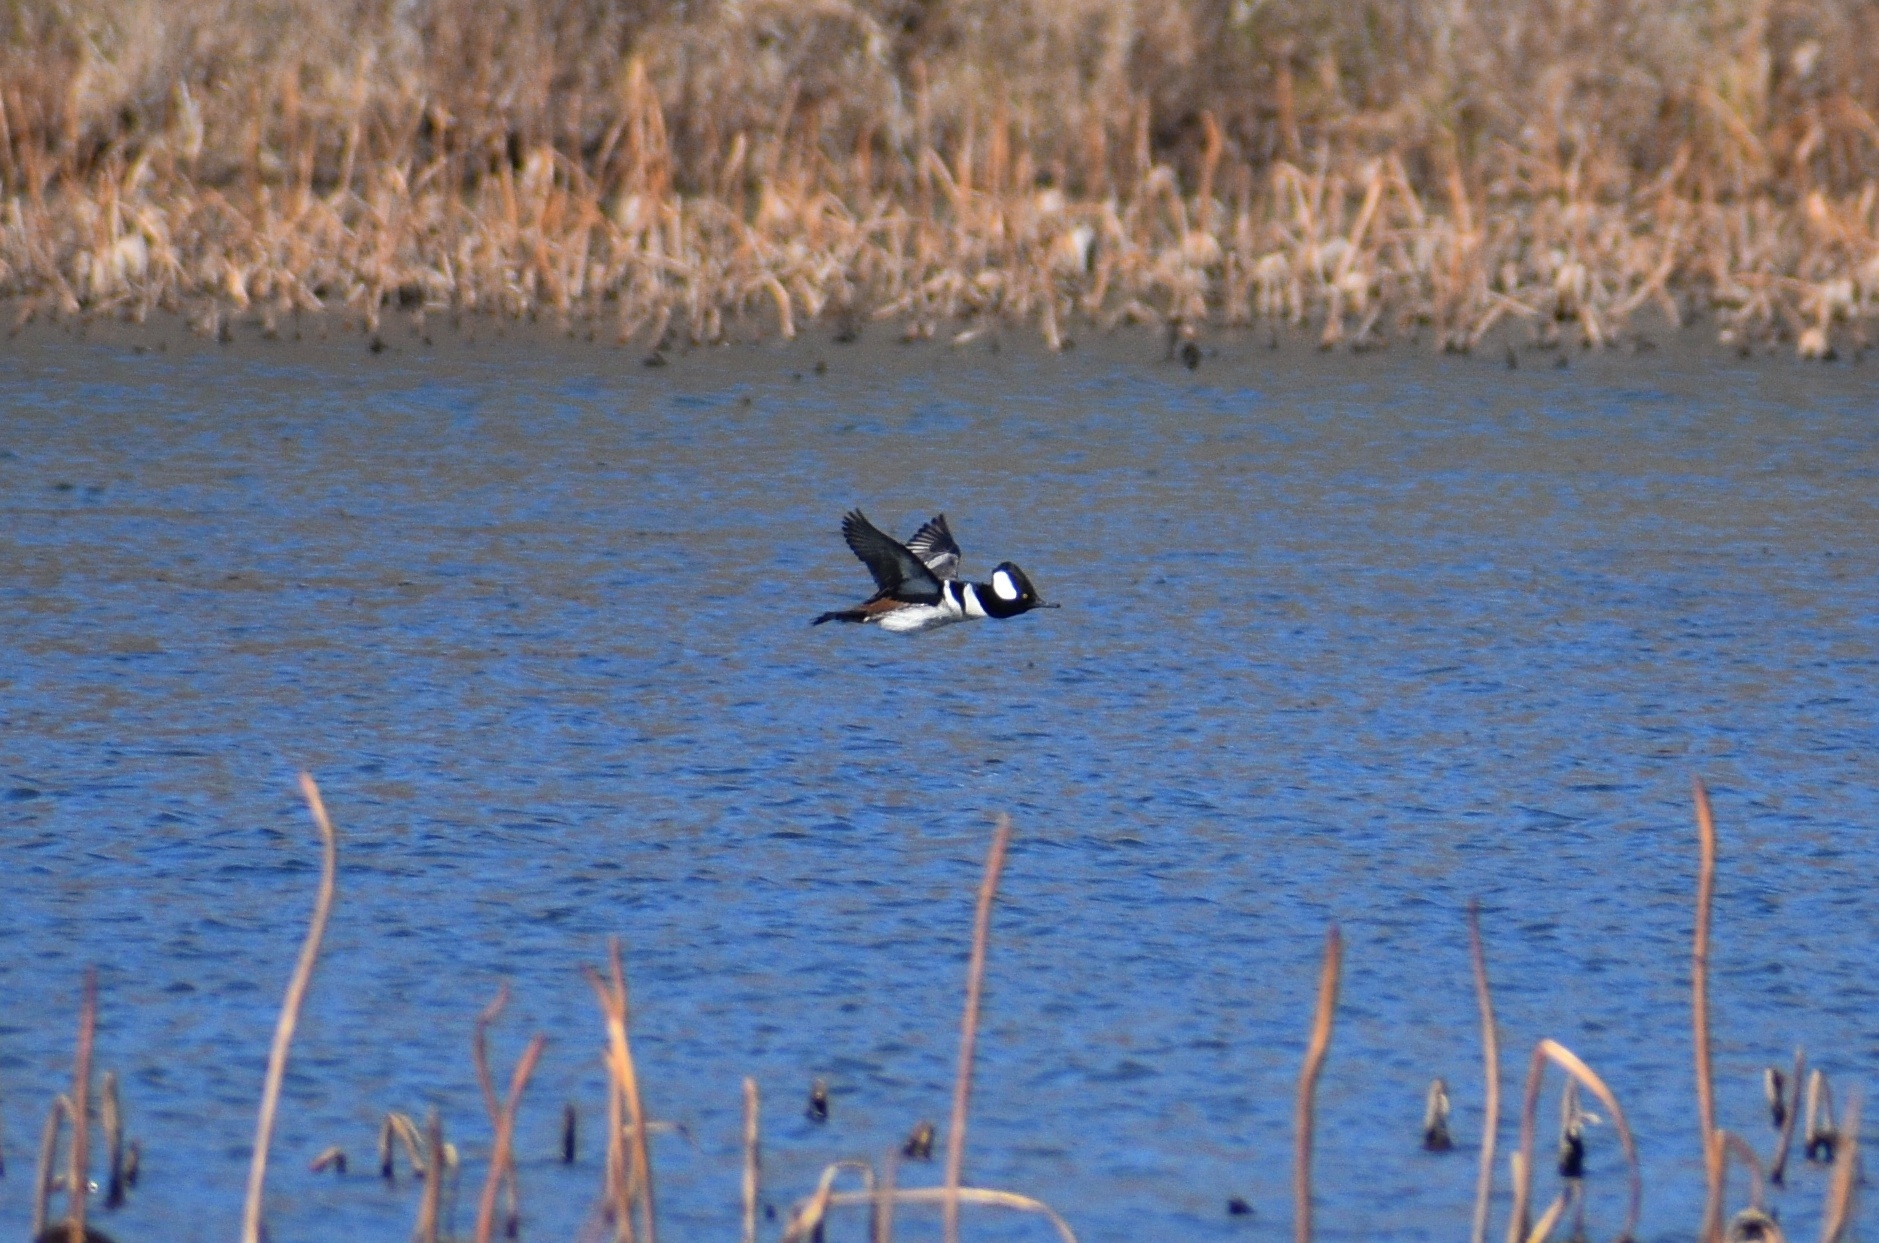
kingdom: Animalia
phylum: Chordata
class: Aves
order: Anseriformes
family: Anatidae
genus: Lophodytes
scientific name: Lophodytes cucullatus
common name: Hooded merganser
